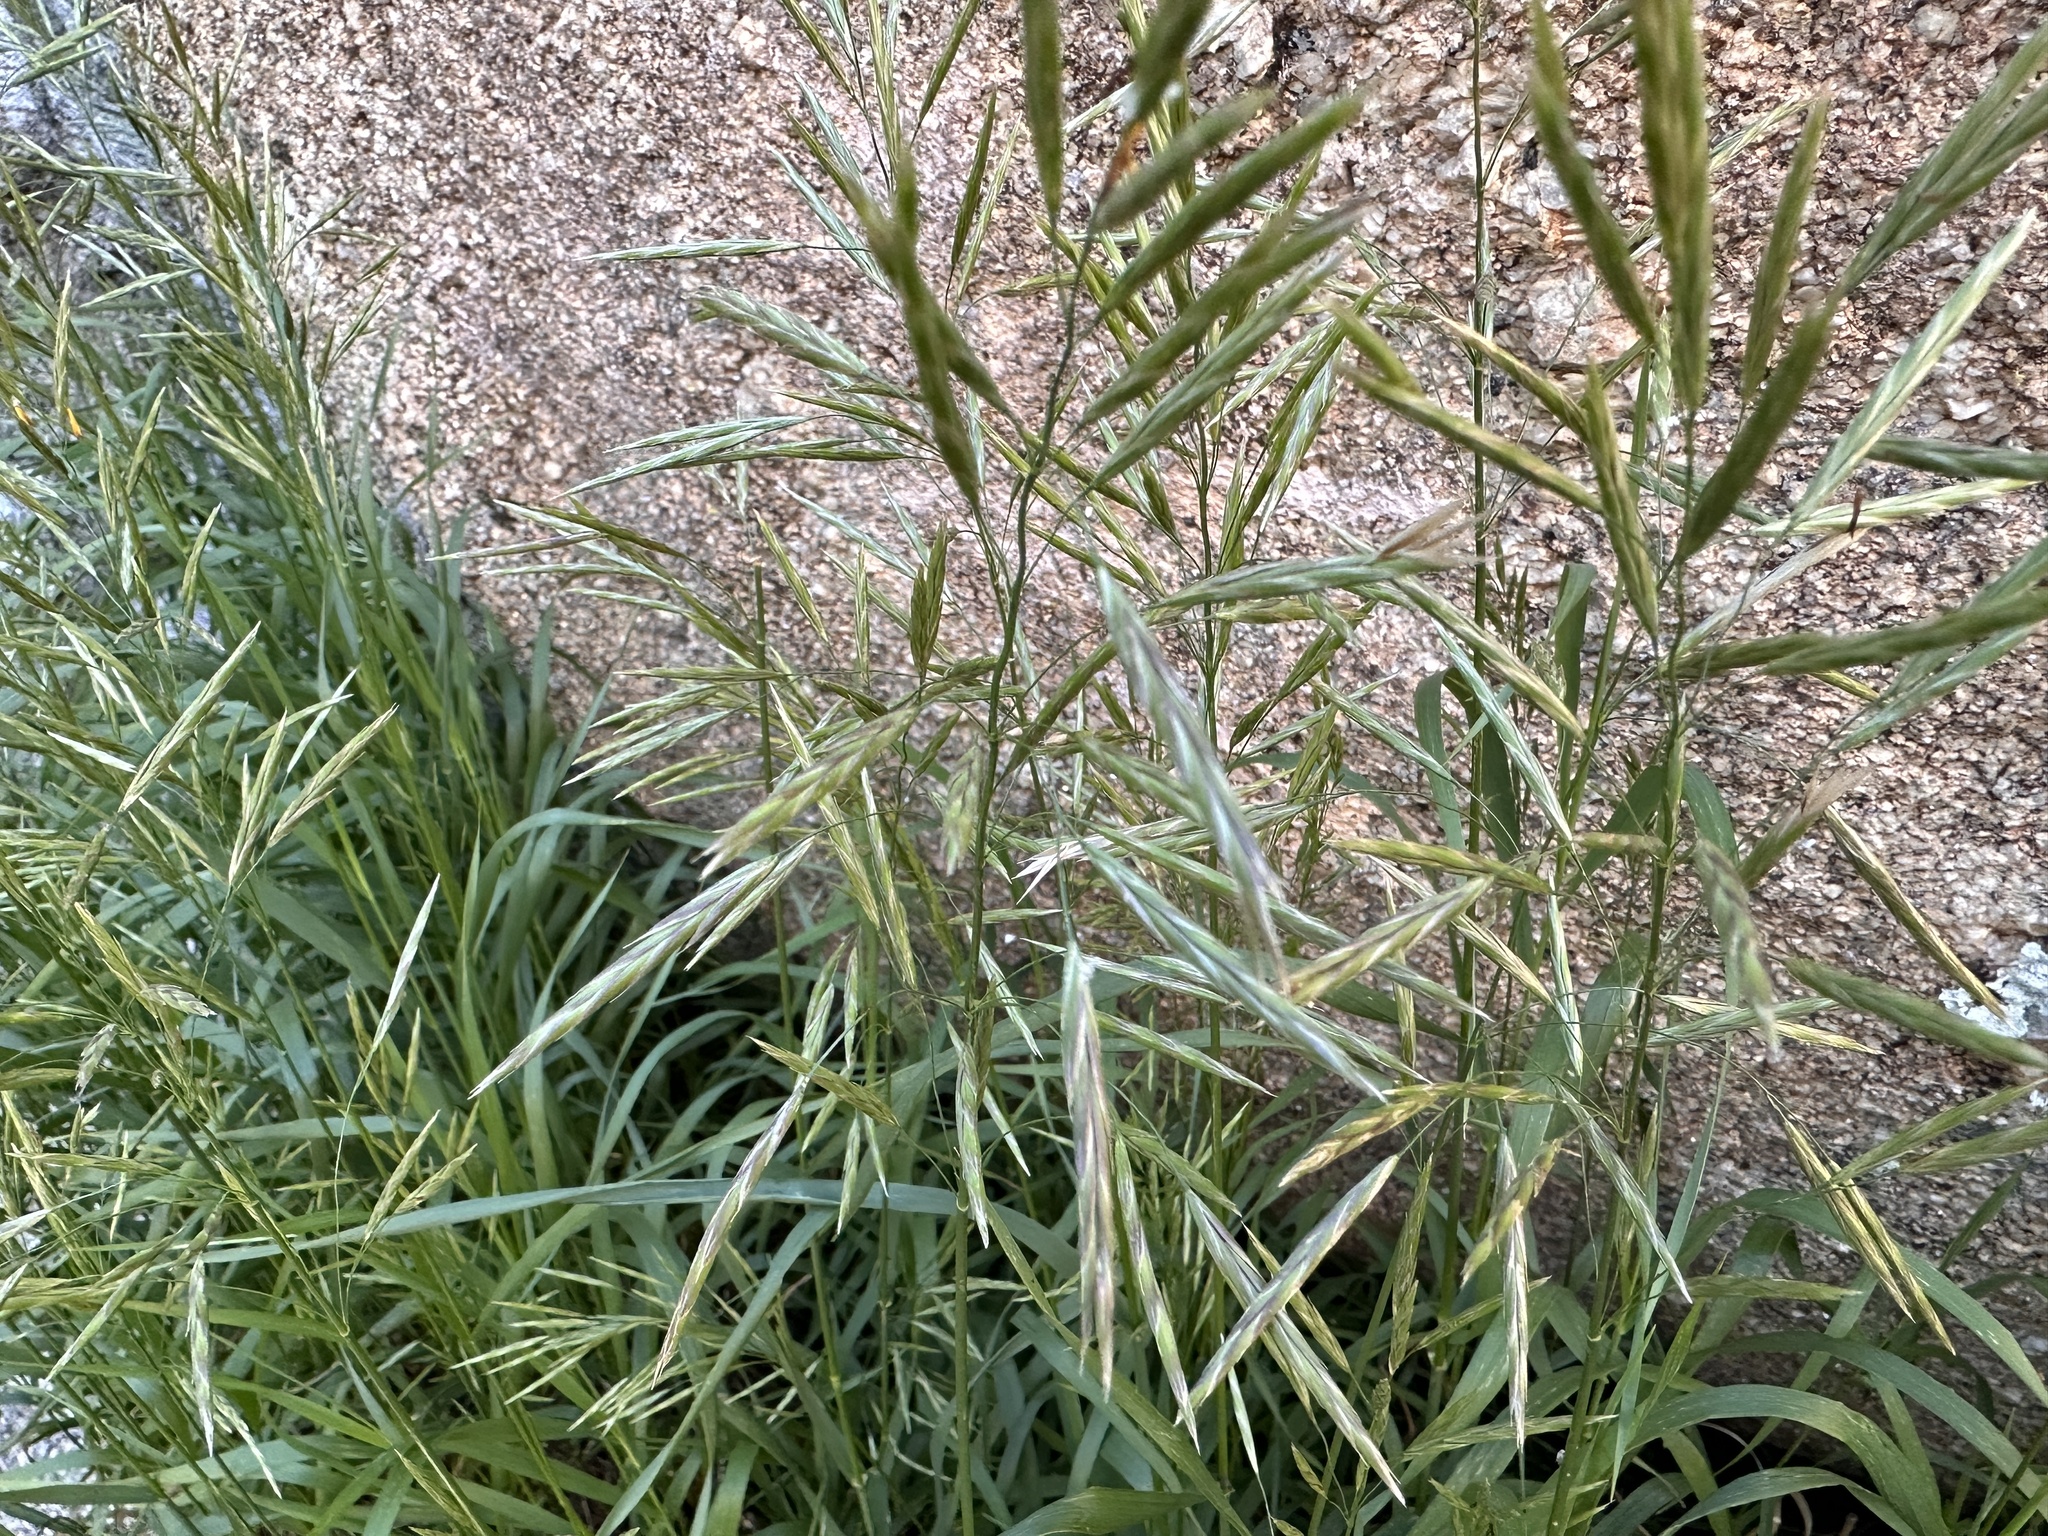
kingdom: Plantae
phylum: Tracheophyta
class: Liliopsida
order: Poales
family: Poaceae
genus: Bromus
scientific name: Bromus inermis
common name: Smooth brome
